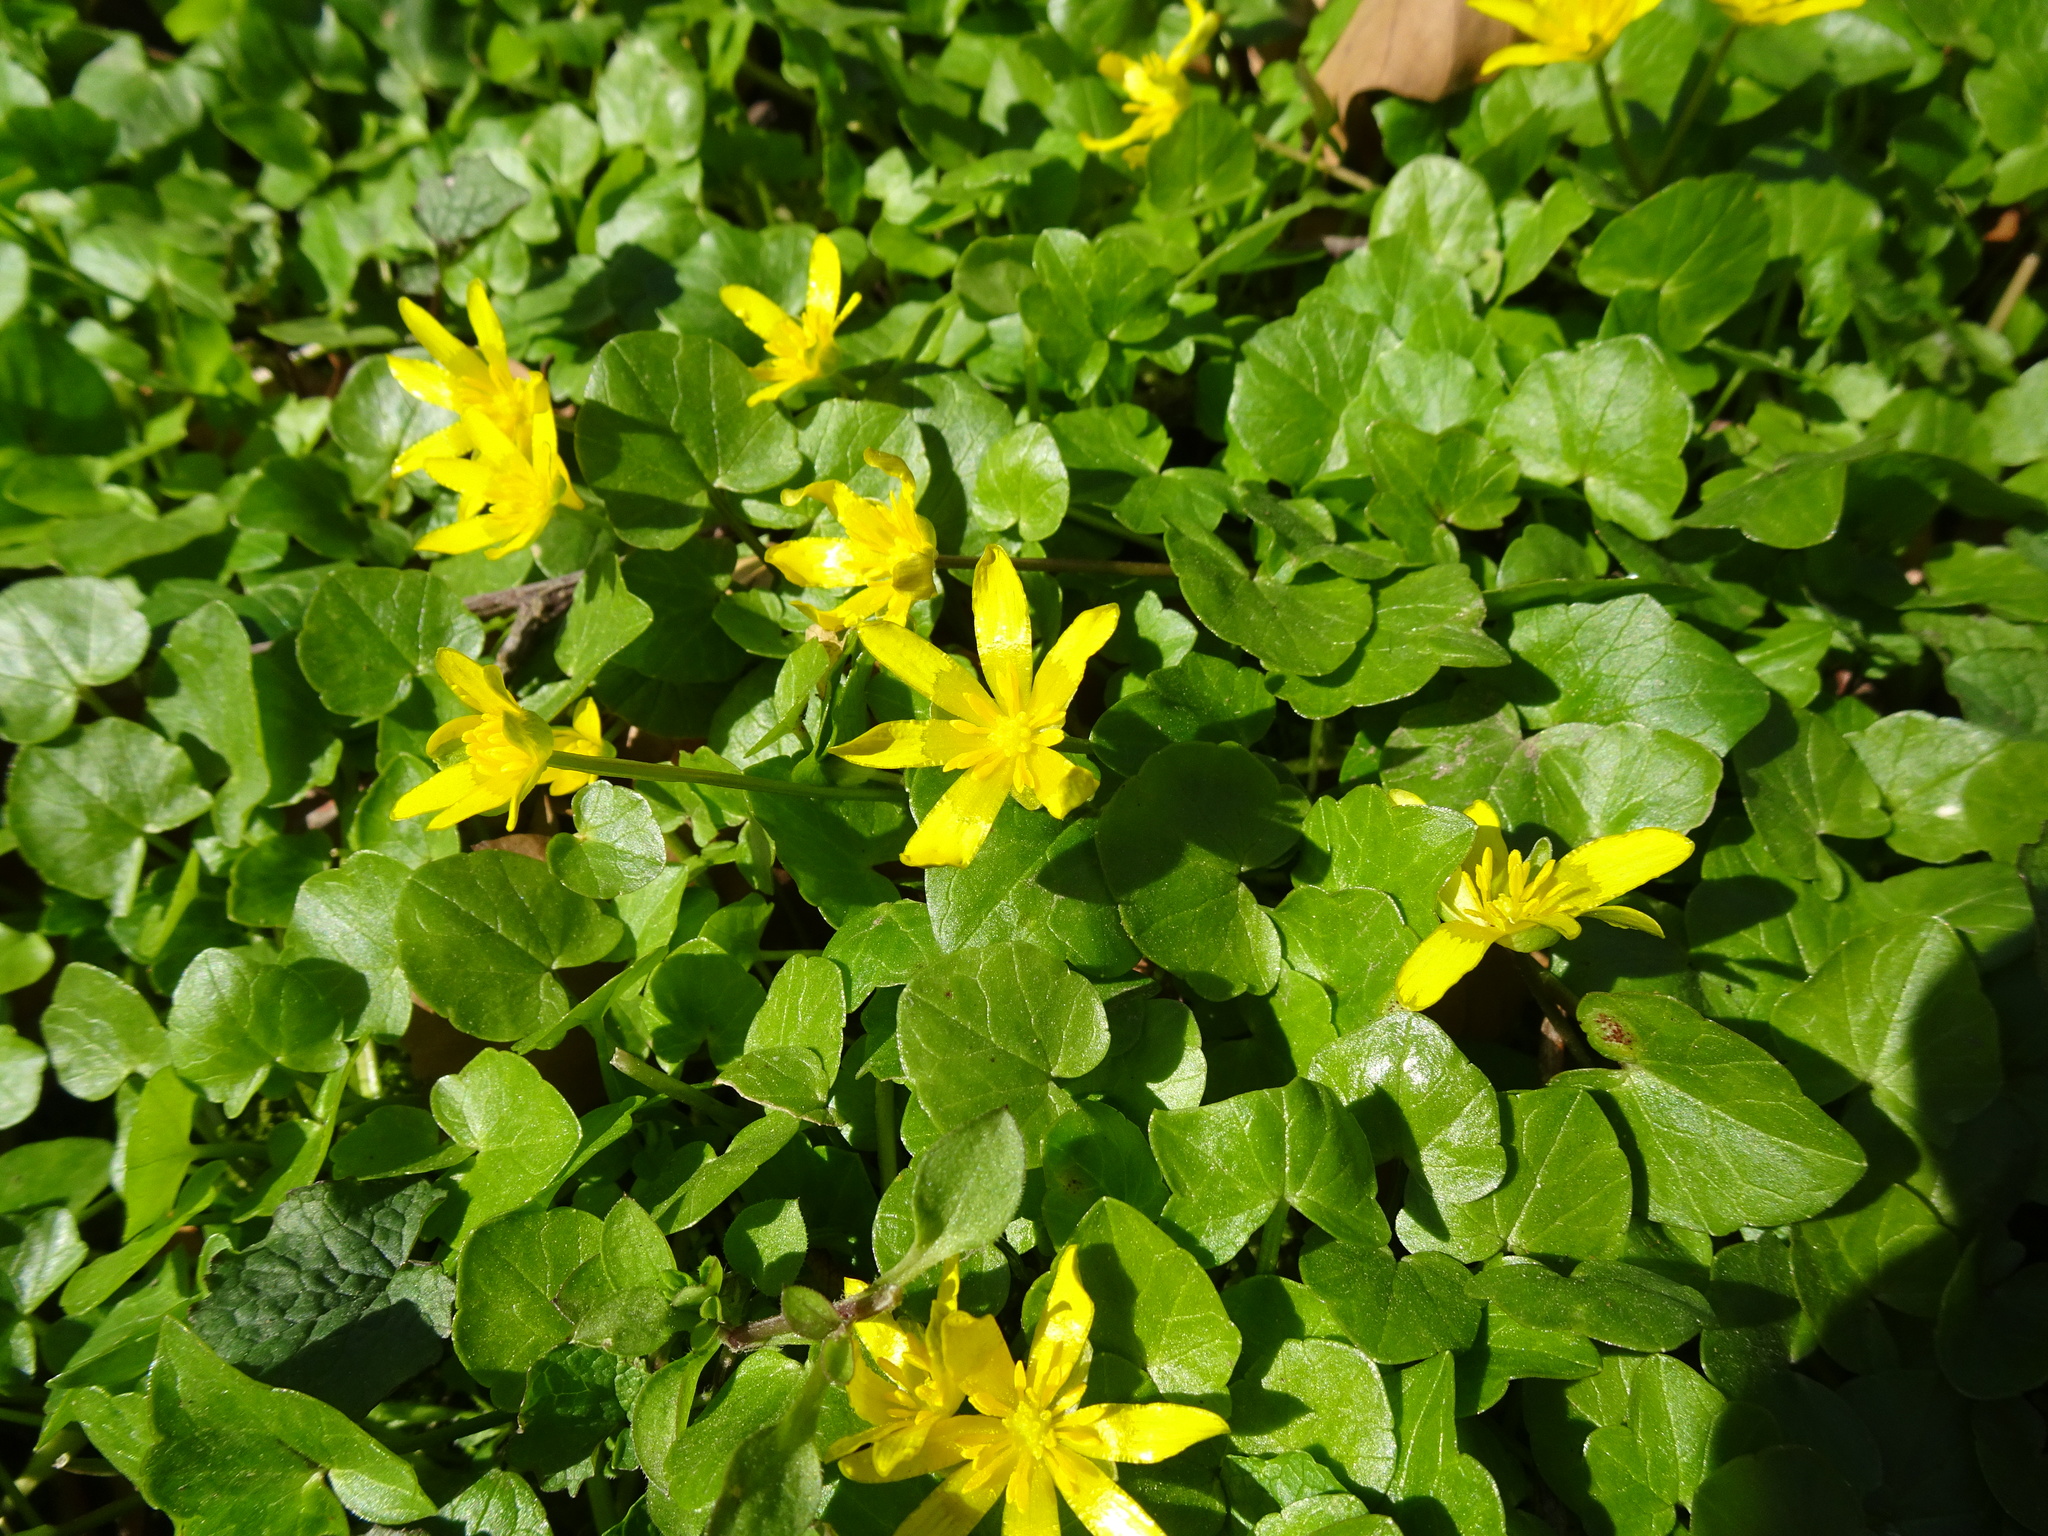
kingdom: Plantae
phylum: Tracheophyta
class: Magnoliopsida
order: Ranunculales
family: Ranunculaceae
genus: Ficaria
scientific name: Ficaria verna
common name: Lesser celandine
